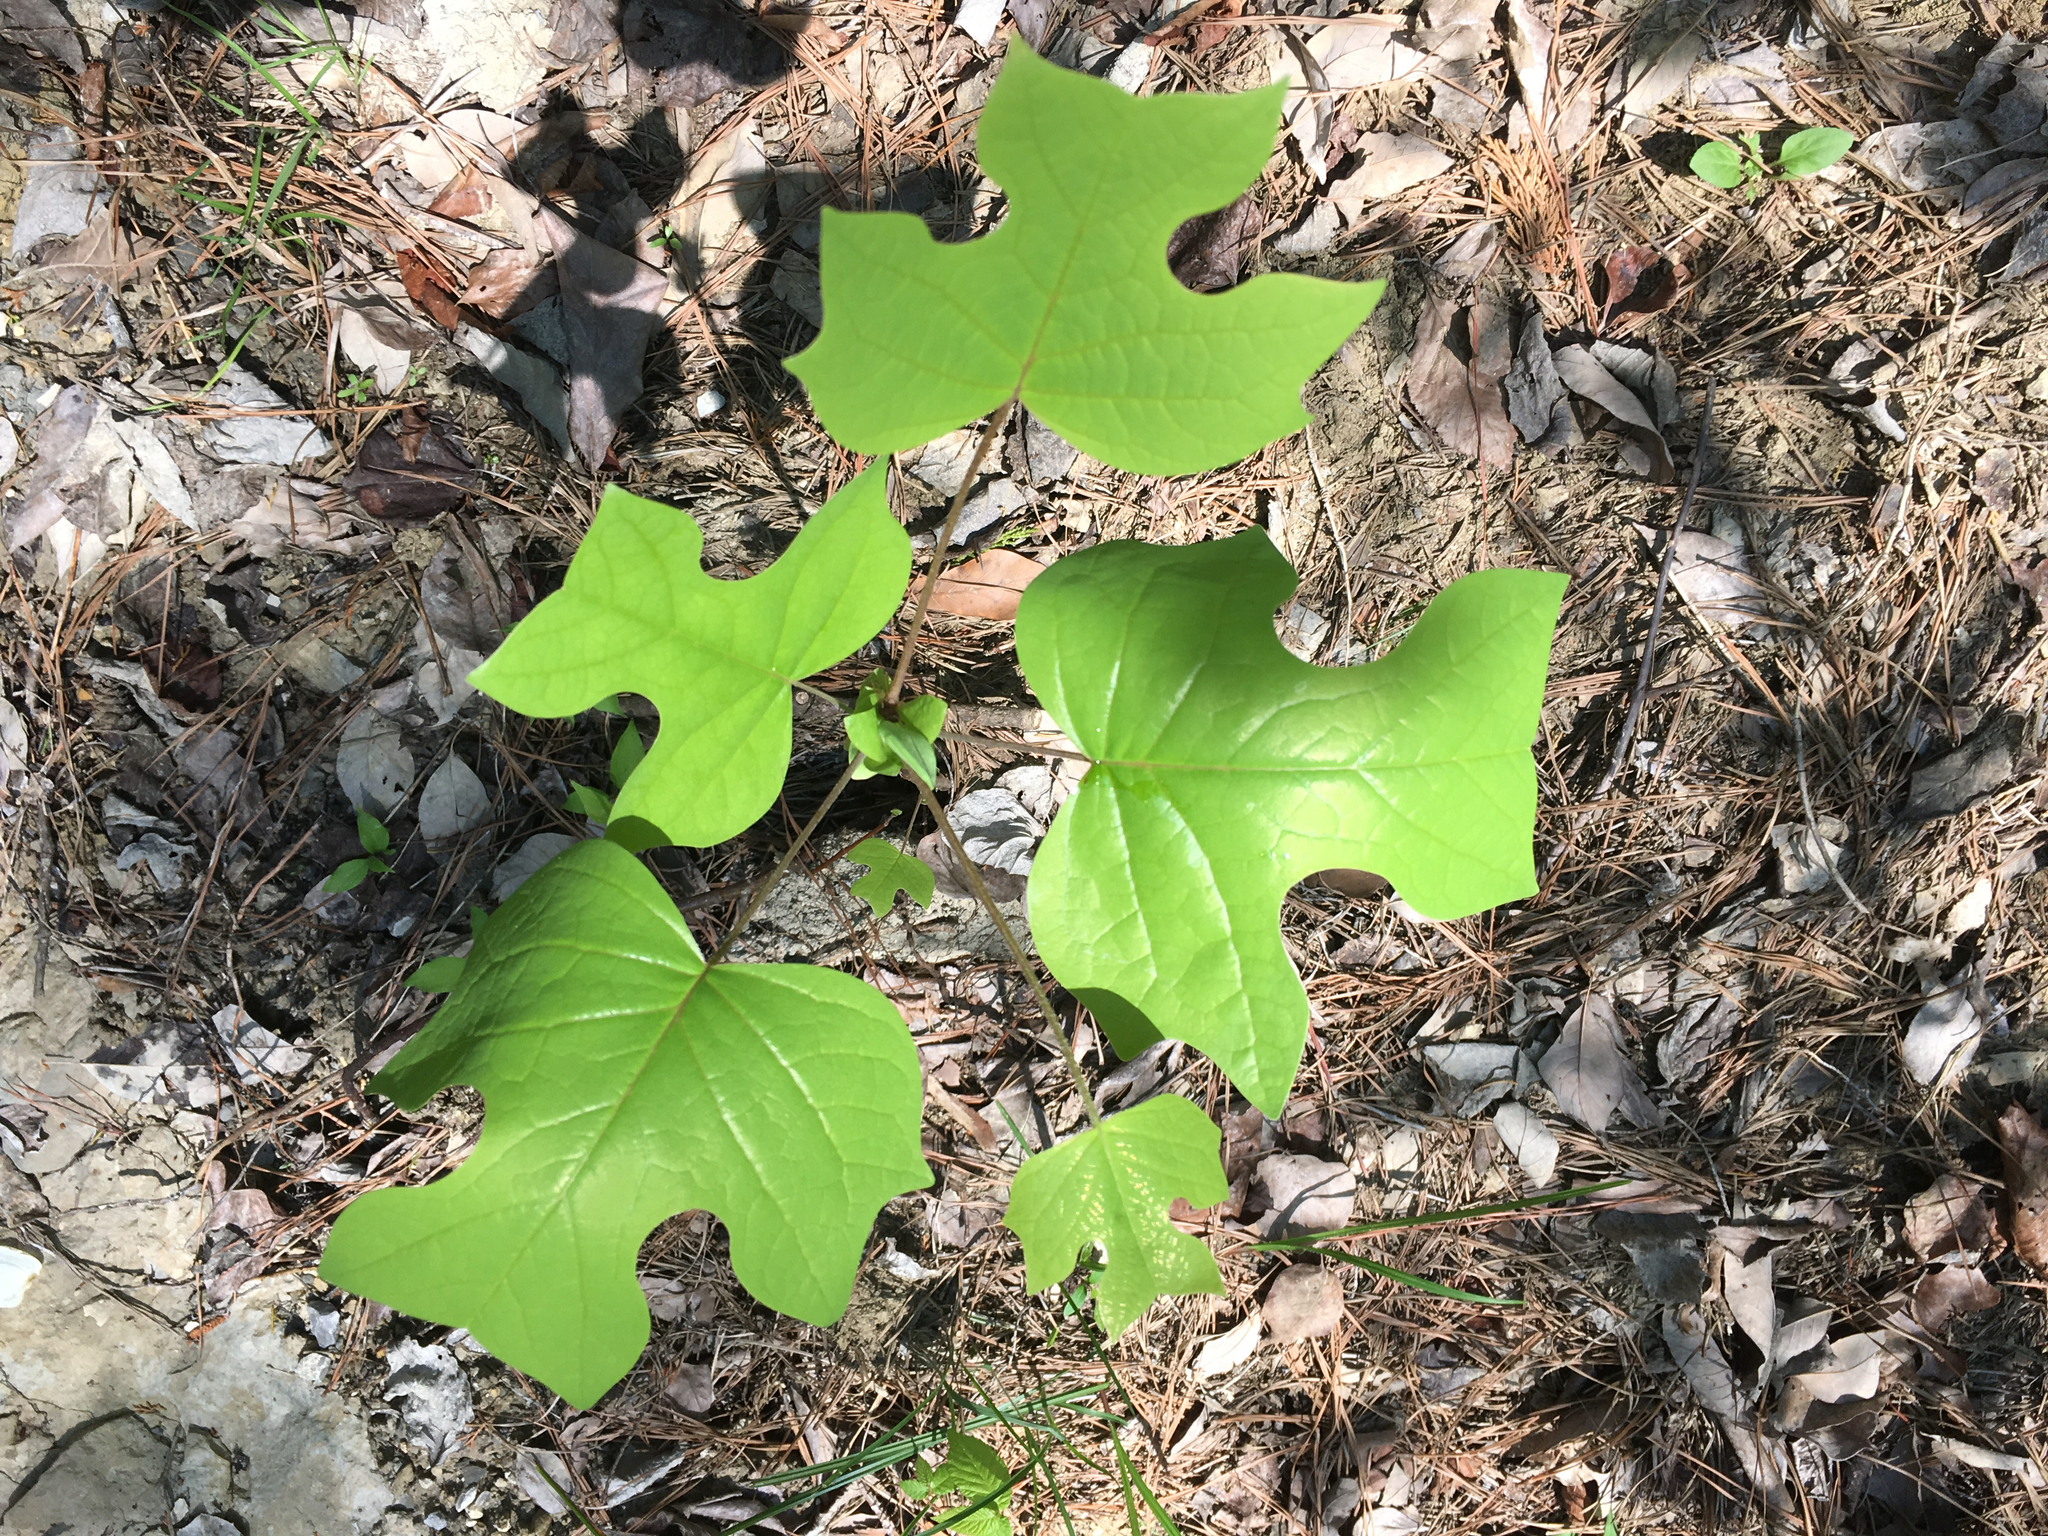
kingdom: Plantae
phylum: Tracheophyta
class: Magnoliopsida
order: Magnoliales
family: Magnoliaceae
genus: Liriodendron
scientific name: Liriodendron tulipifera
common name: Tulip tree
